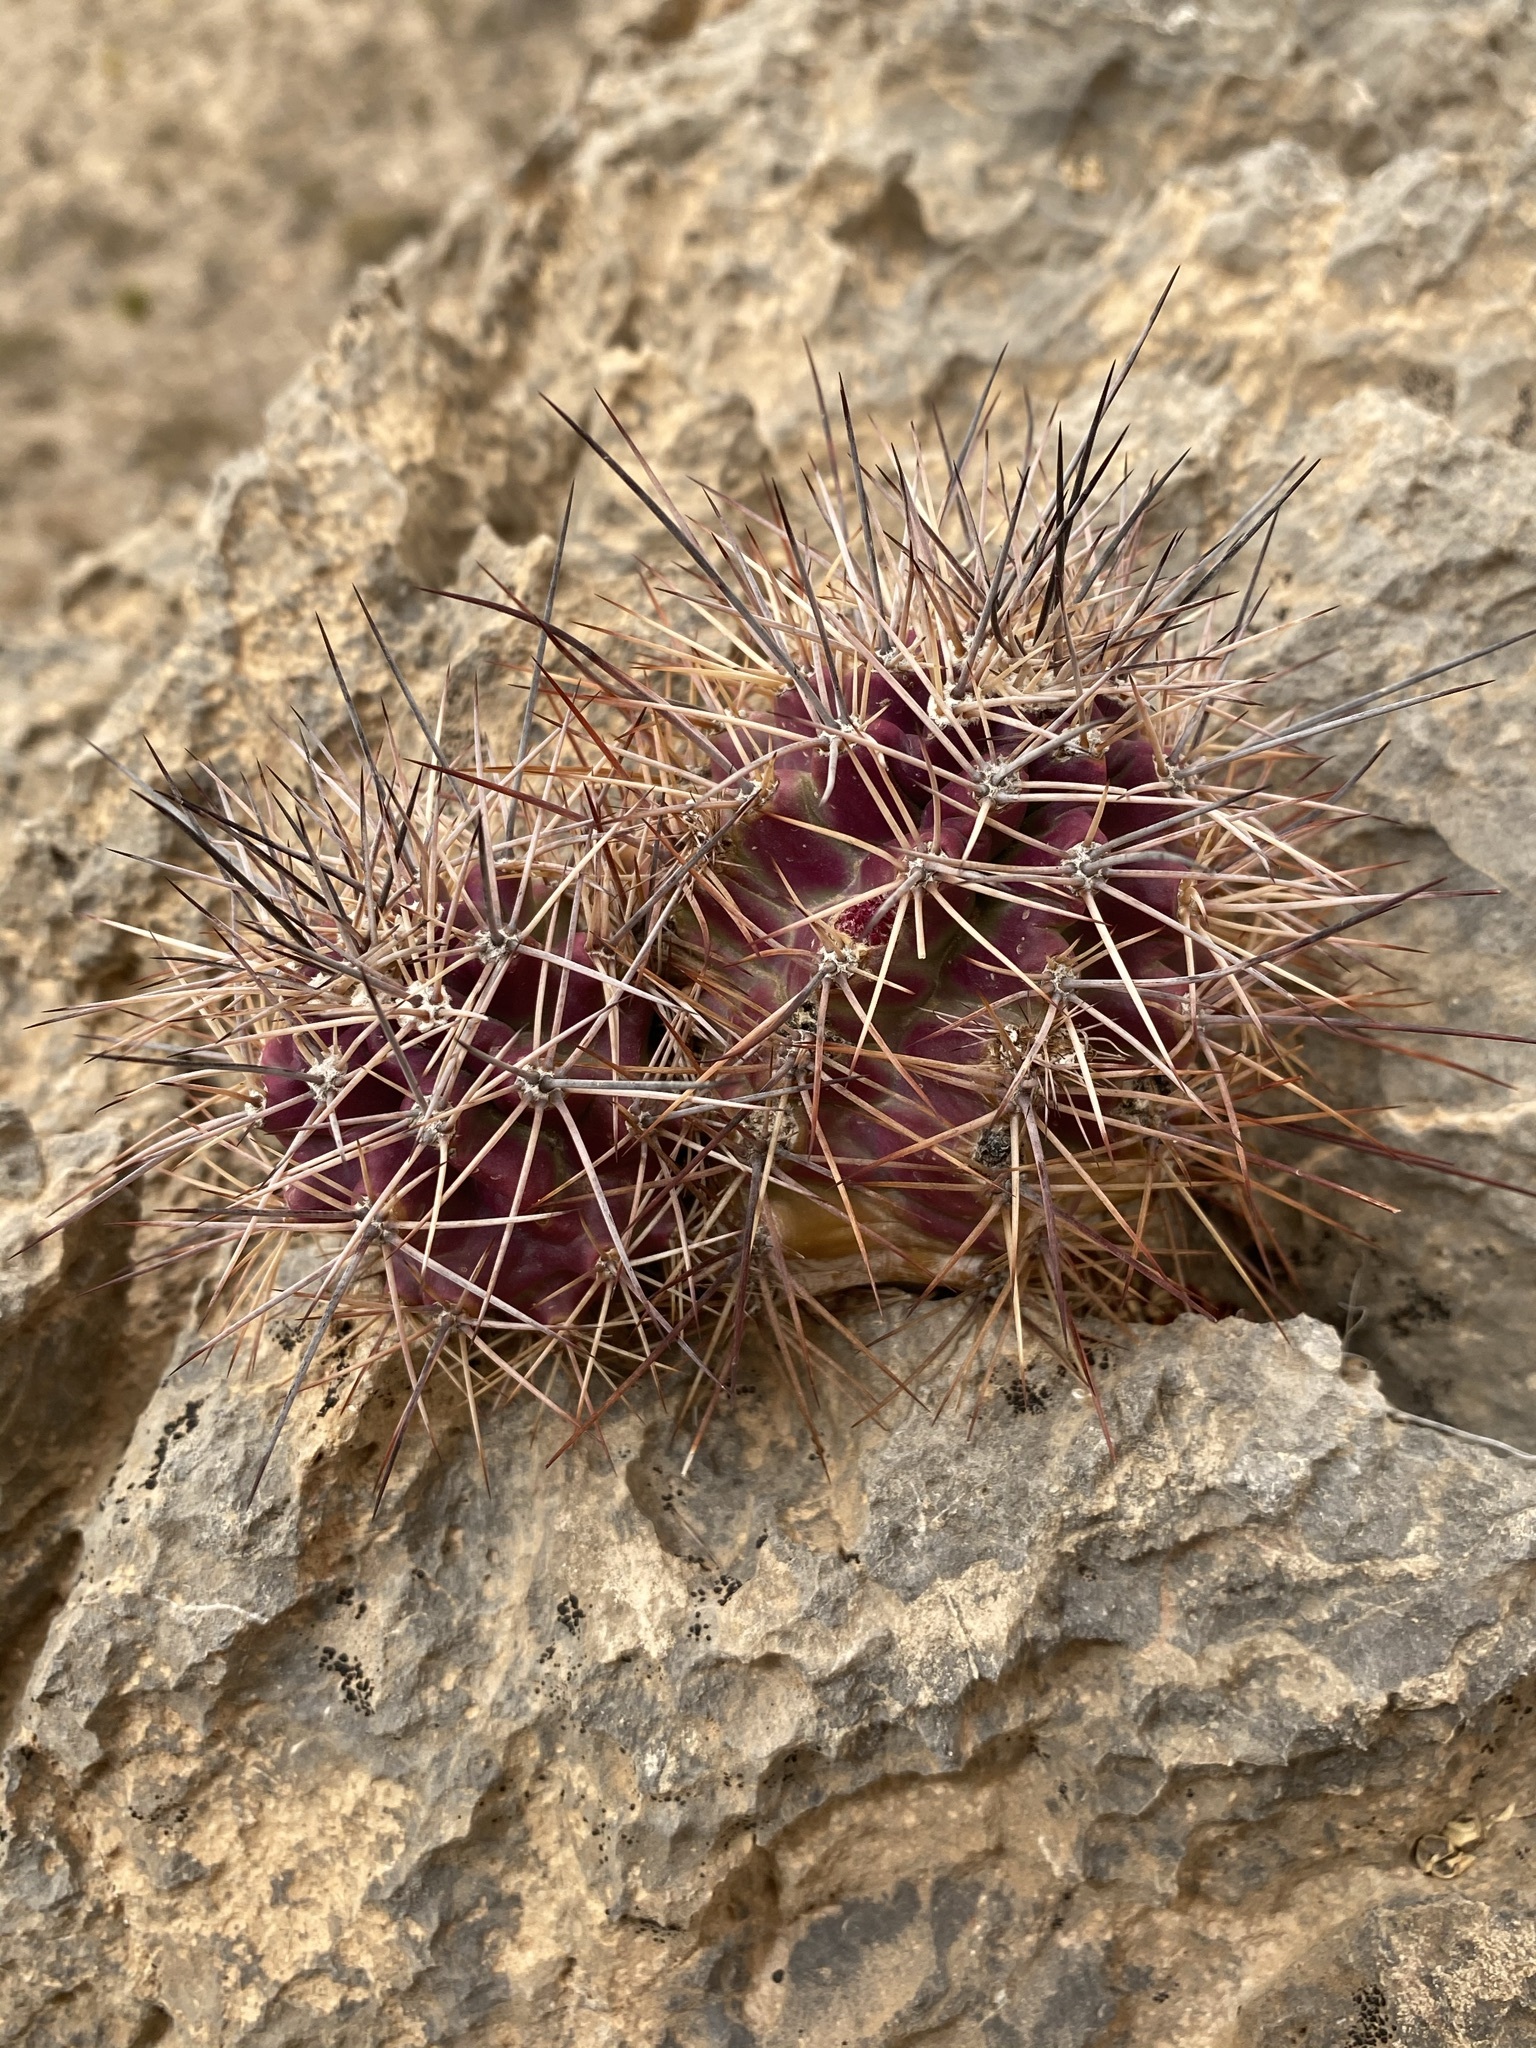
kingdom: Plantae
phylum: Tracheophyta
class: Magnoliopsida
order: Caryophyllales
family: Cactaceae
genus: Echinocereus
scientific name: Echinocereus coccineus
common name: Scarlet hedgehog cactus
